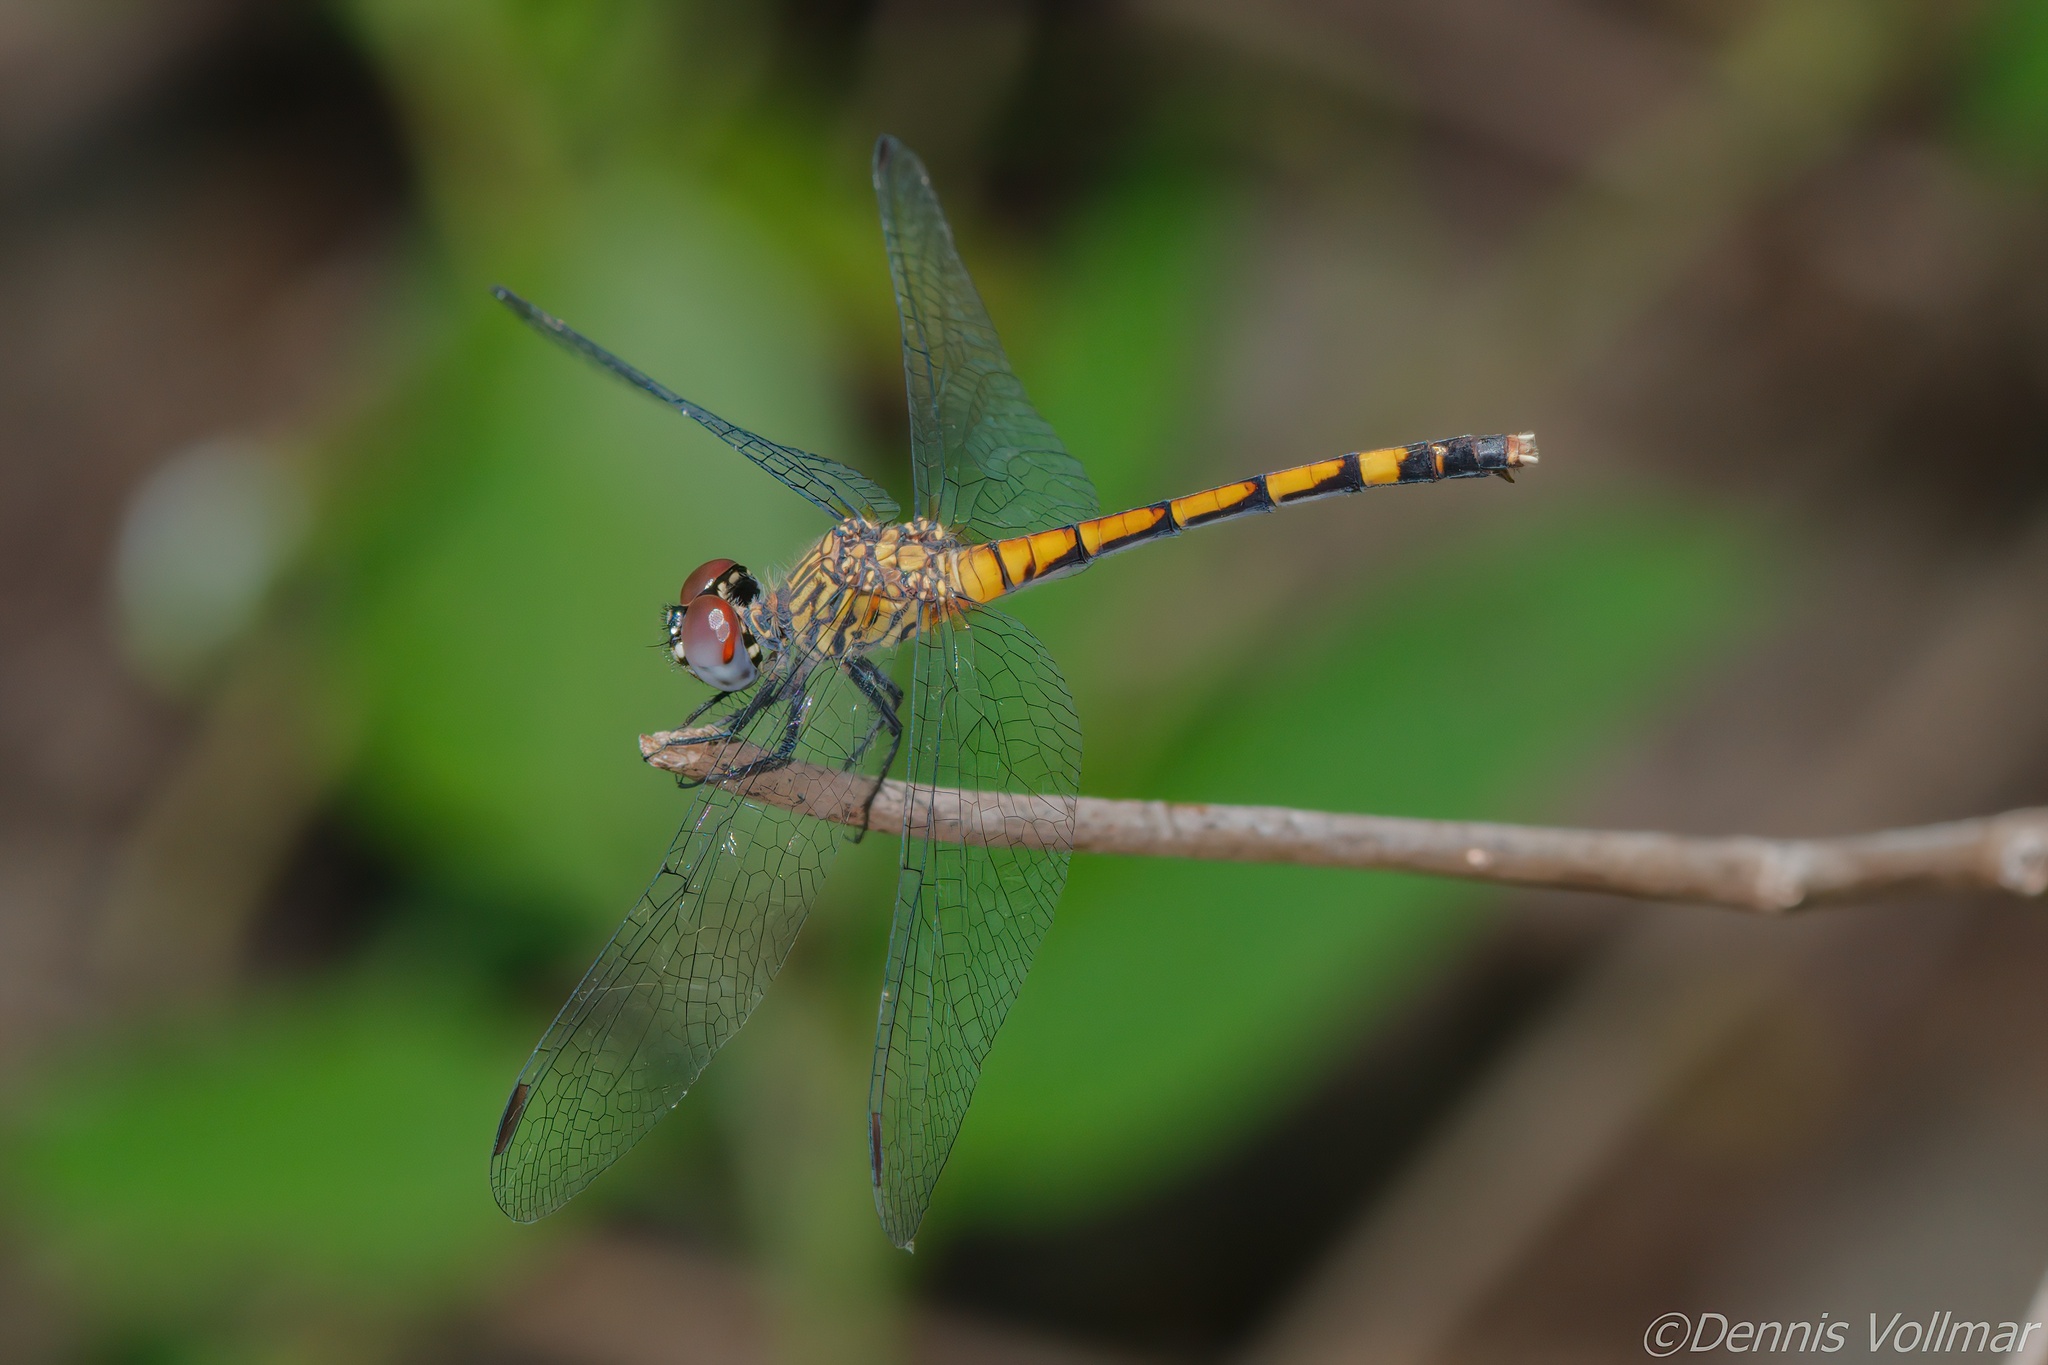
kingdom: Animalia
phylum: Arthropoda
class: Insecta
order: Odonata
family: Libellulidae
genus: Erythrodiplax
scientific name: Erythrodiplax berenice
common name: Seaside dragonlet
